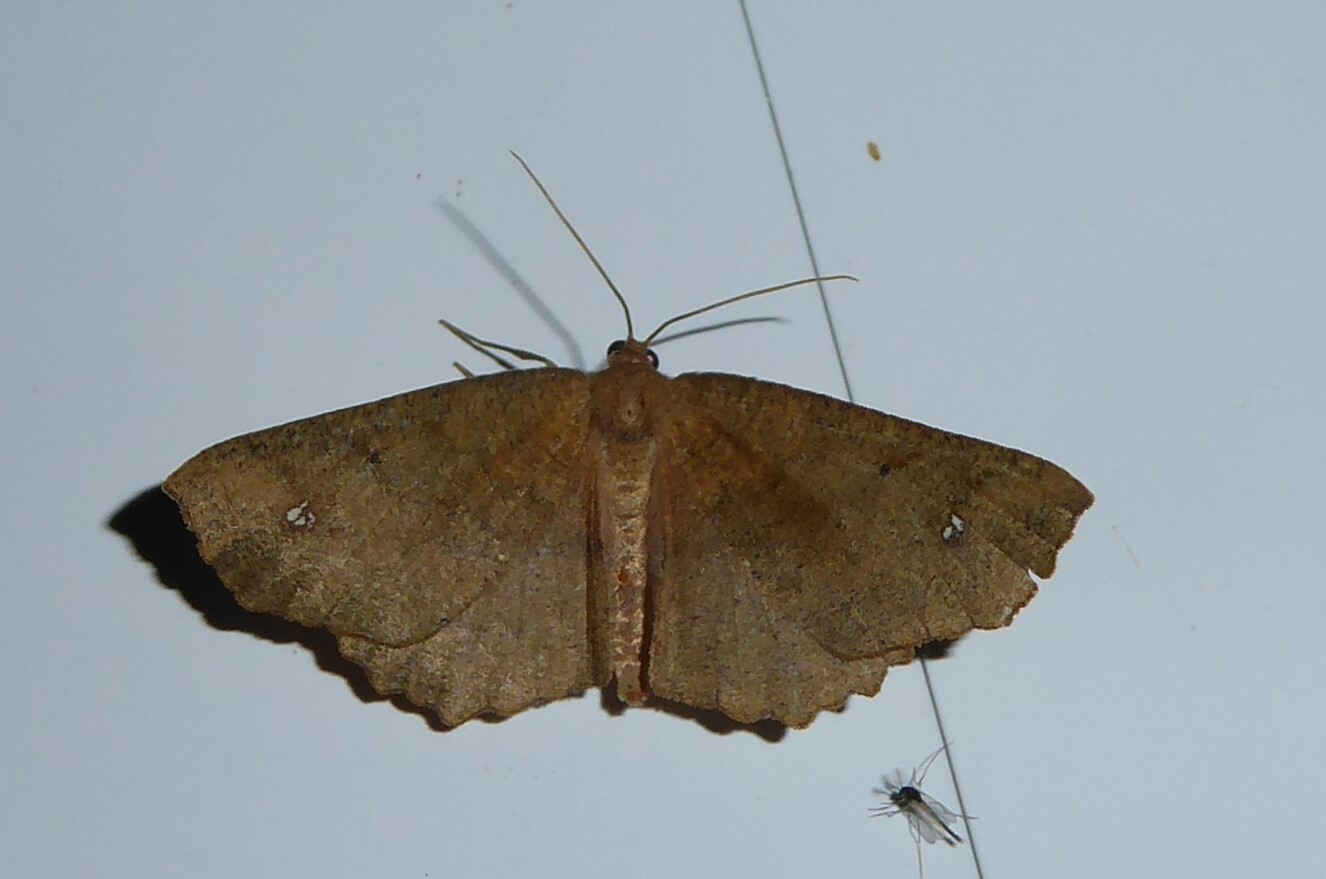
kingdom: Animalia
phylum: Arthropoda
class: Insecta
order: Lepidoptera
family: Geometridae
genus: Xyridacma
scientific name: Xyridacma ustaria
